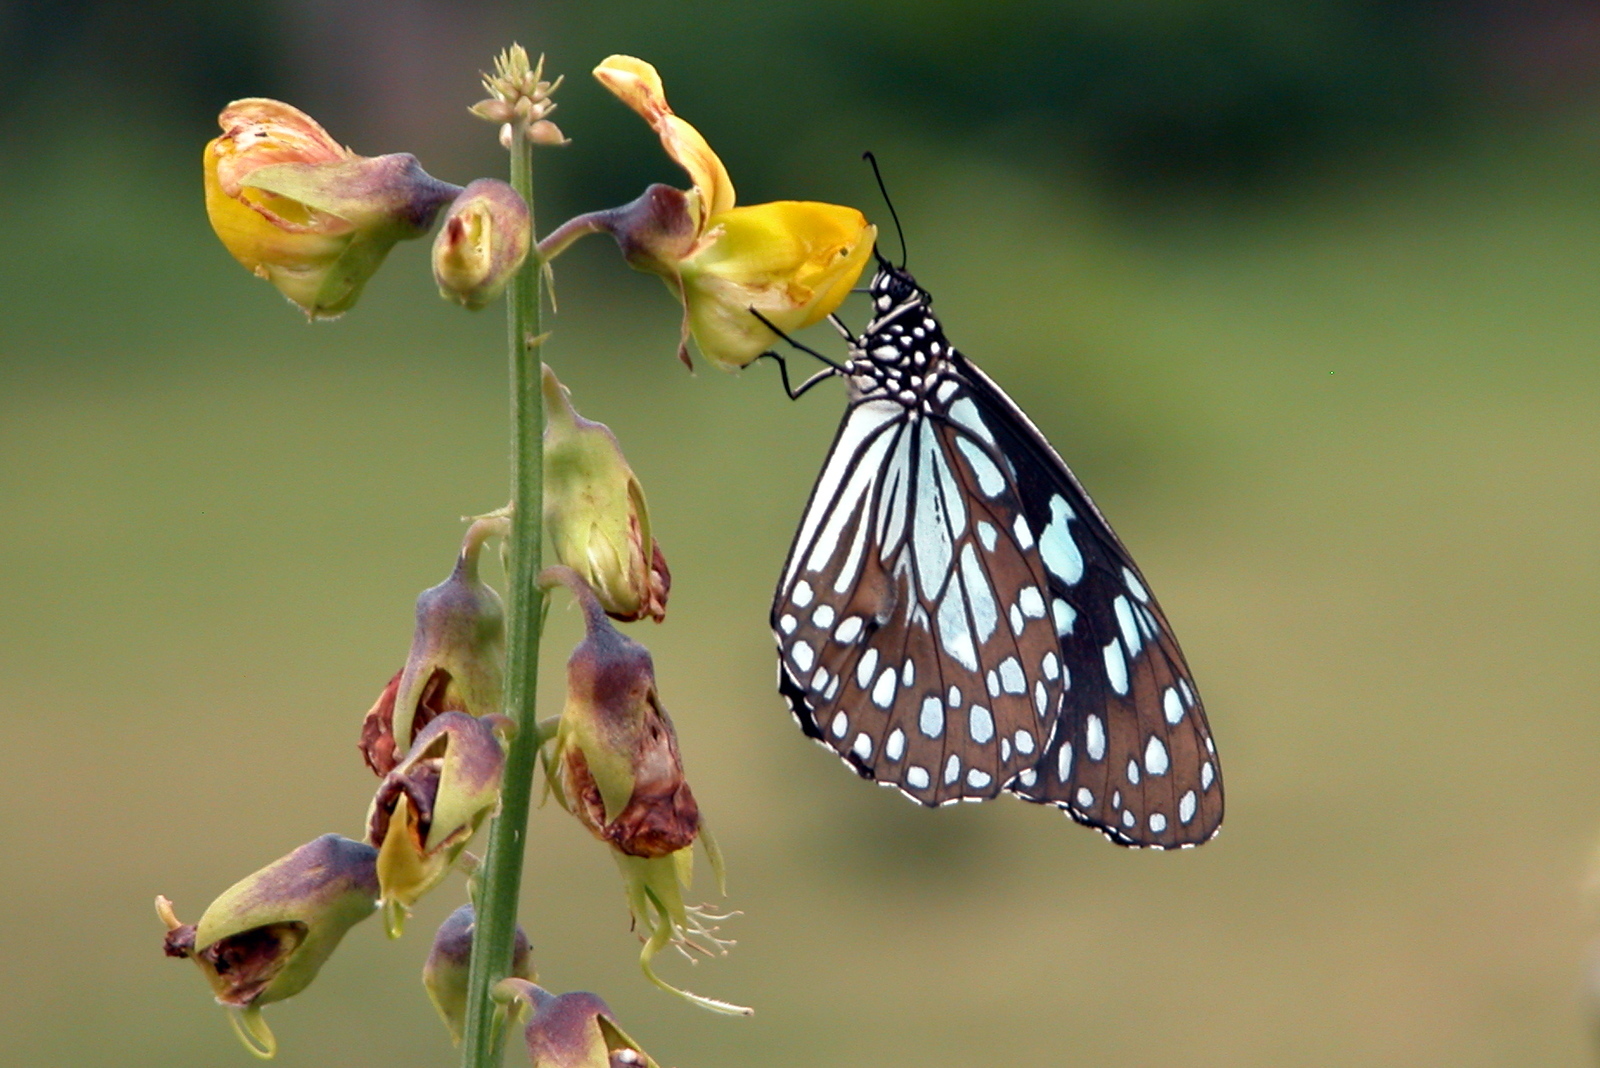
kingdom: Animalia
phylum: Arthropoda
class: Insecta
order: Lepidoptera
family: Nymphalidae
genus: Tirumala
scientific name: Tirumala limniace
